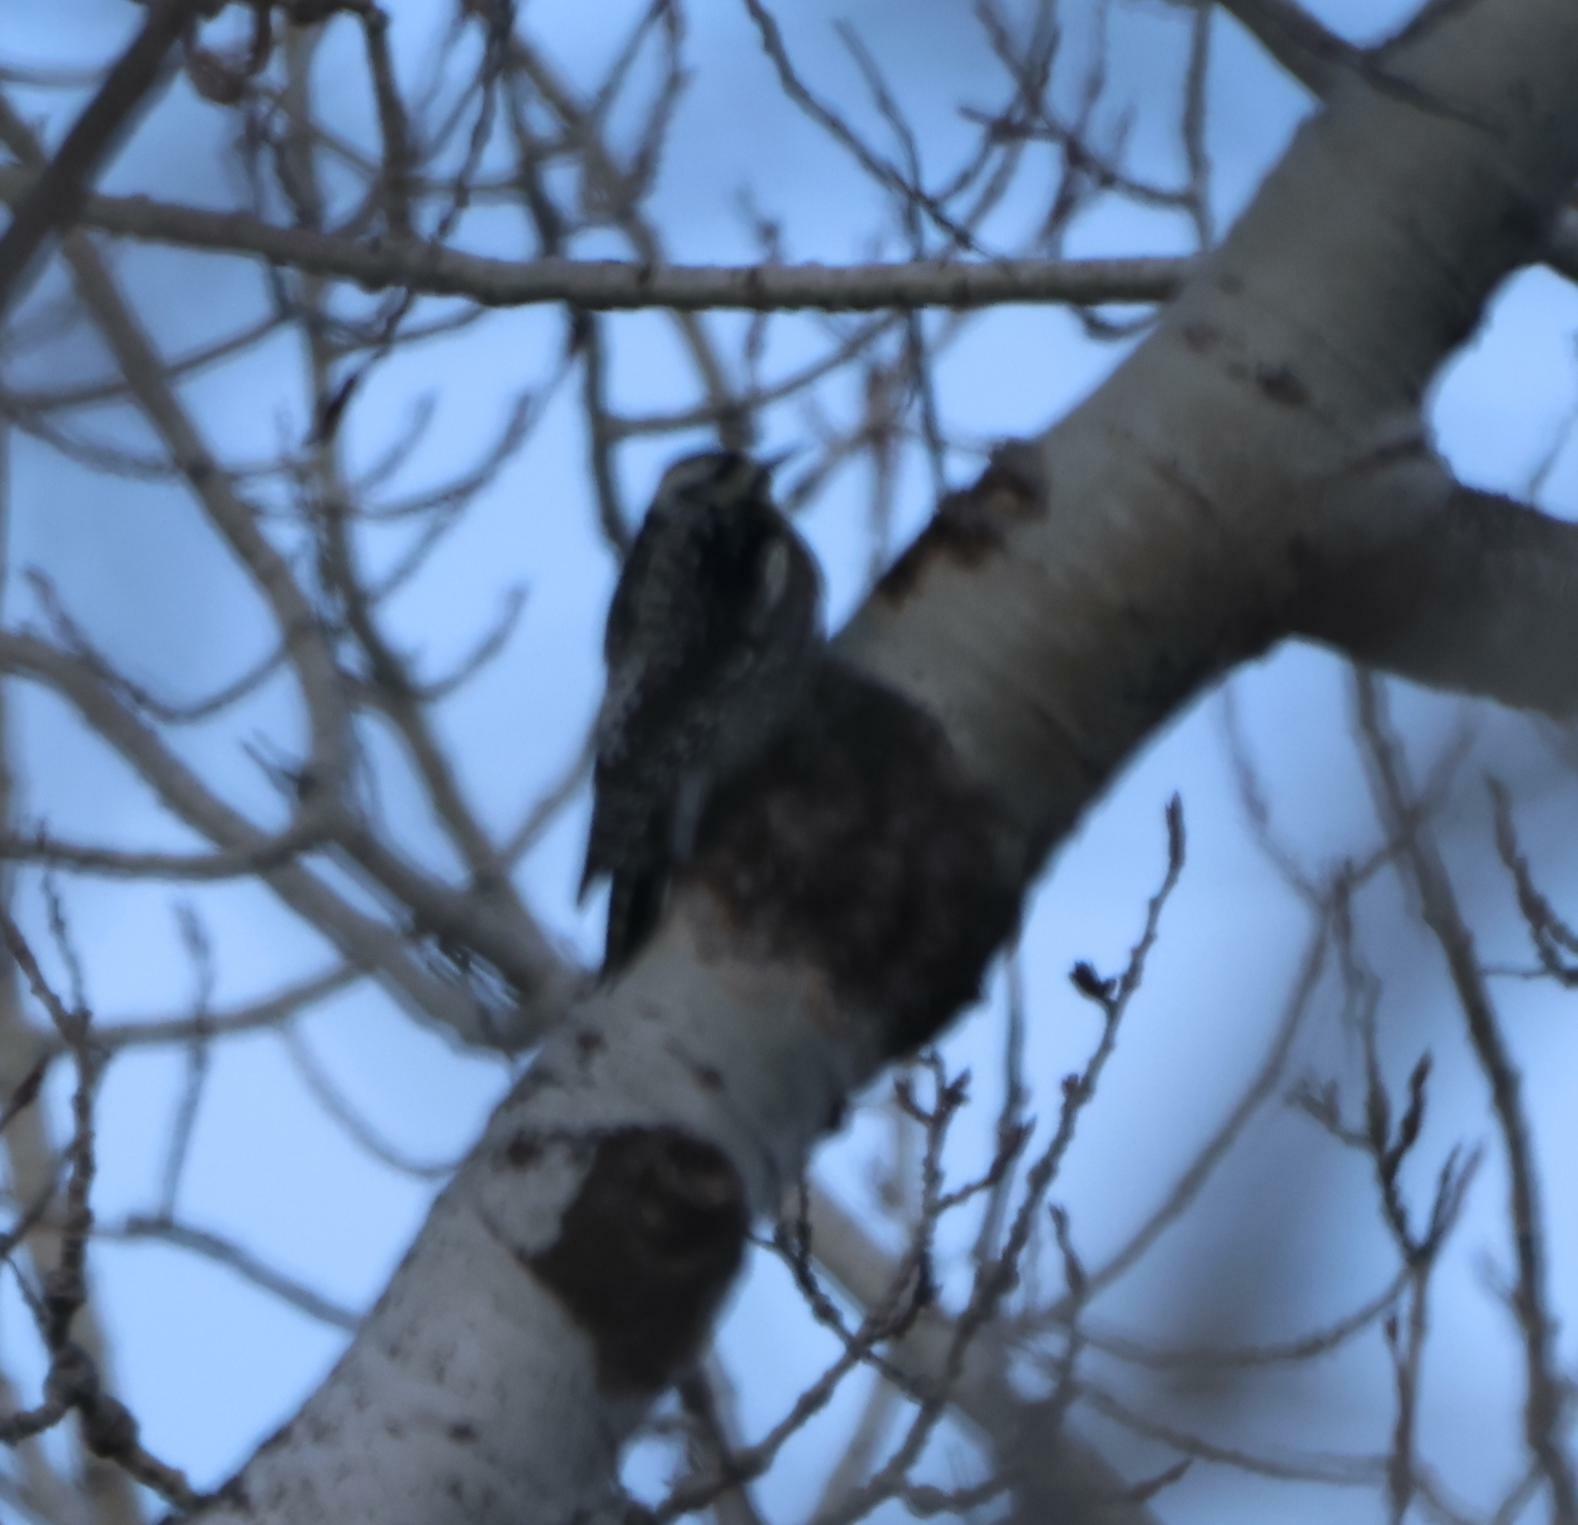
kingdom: Animalia
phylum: Chordata
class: Aves
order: Piciformes
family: Picidae
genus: Sphyrapicus
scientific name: Sphyrapicus varius
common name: Yellow-bellied sapsucker
